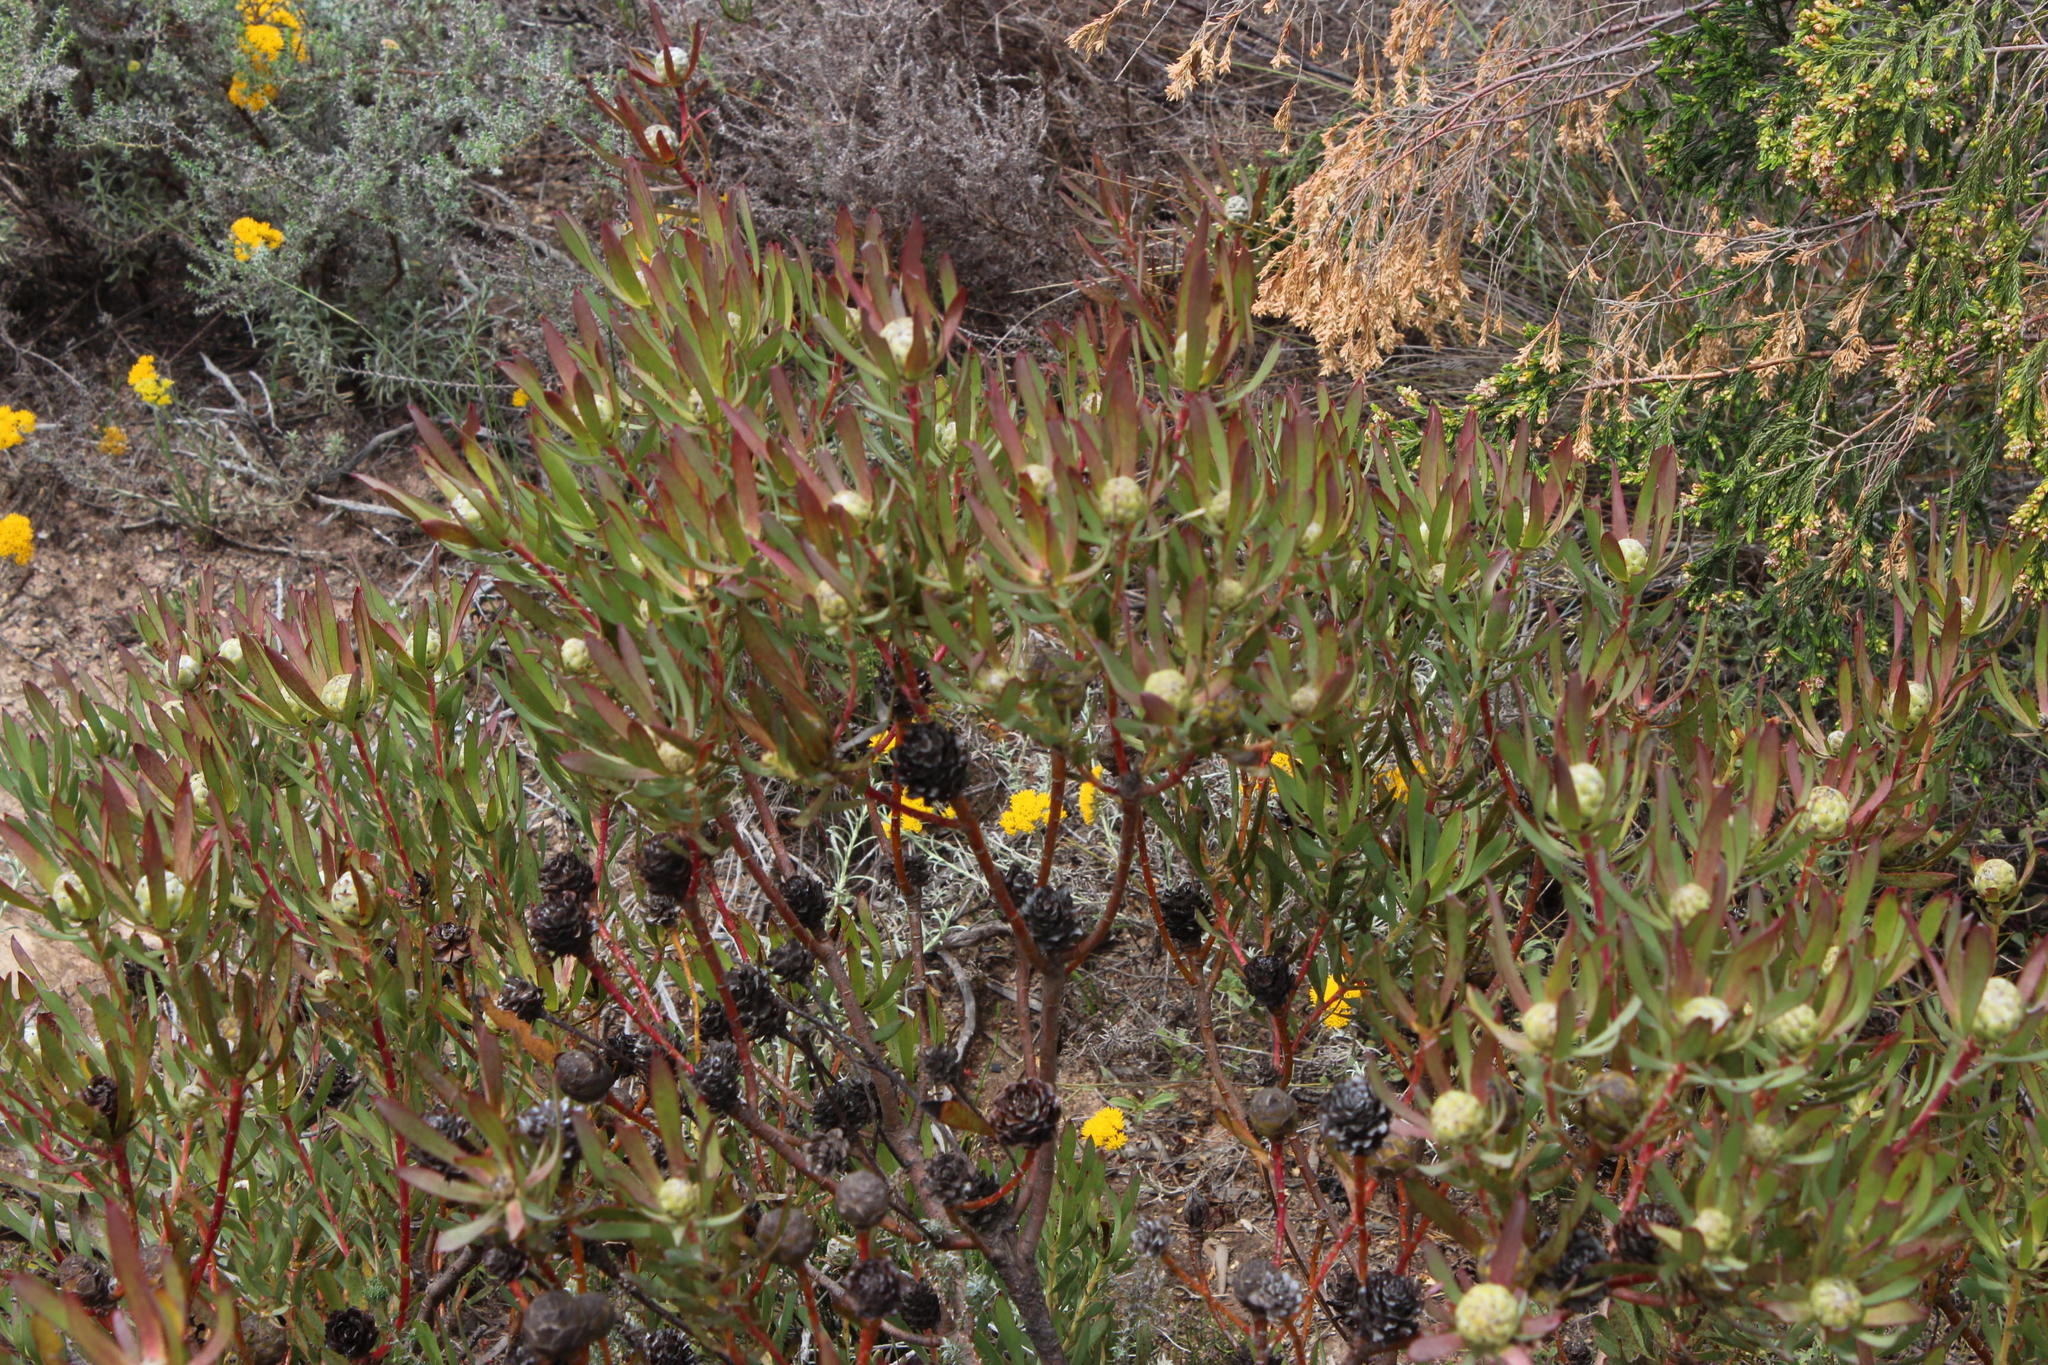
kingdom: Plantae
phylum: Tracheophyta
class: Magnoliopsida
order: Proteales
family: Proteaceae
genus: Leucadendron
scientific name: Leucadendron salignum
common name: Common sunshine conebush
